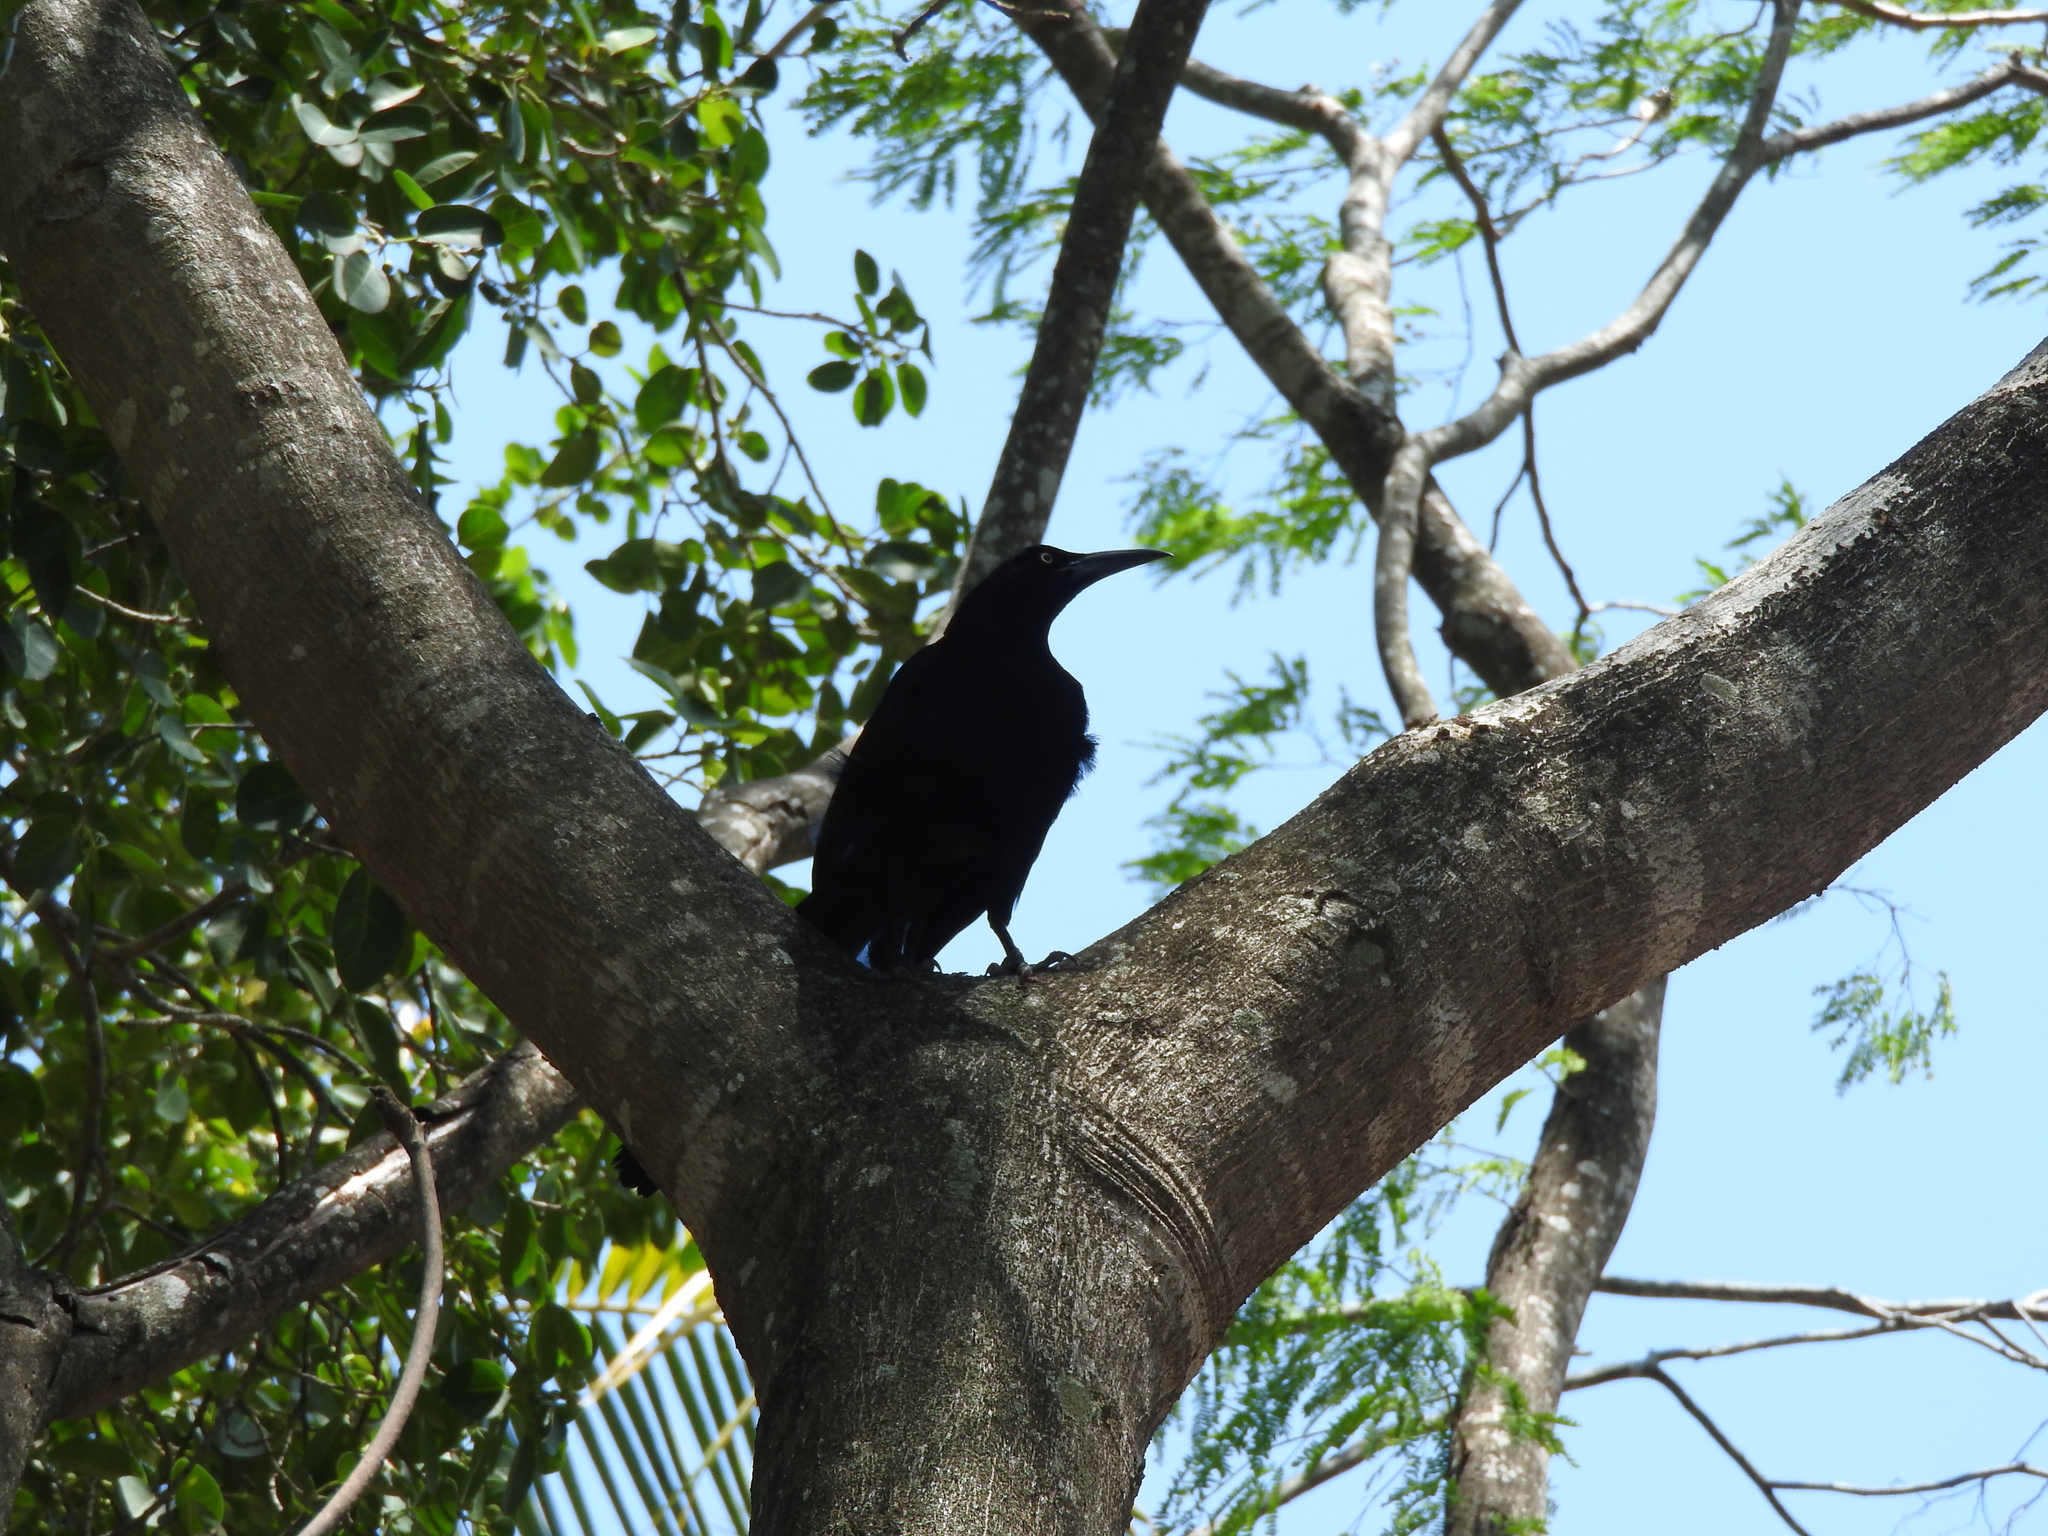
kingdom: Animalia
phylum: Chordata
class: Aves
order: Passeriformes
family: Icteridae
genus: Quiscalus
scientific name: Quiscalus mexicanus
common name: Great-tailed grackle
